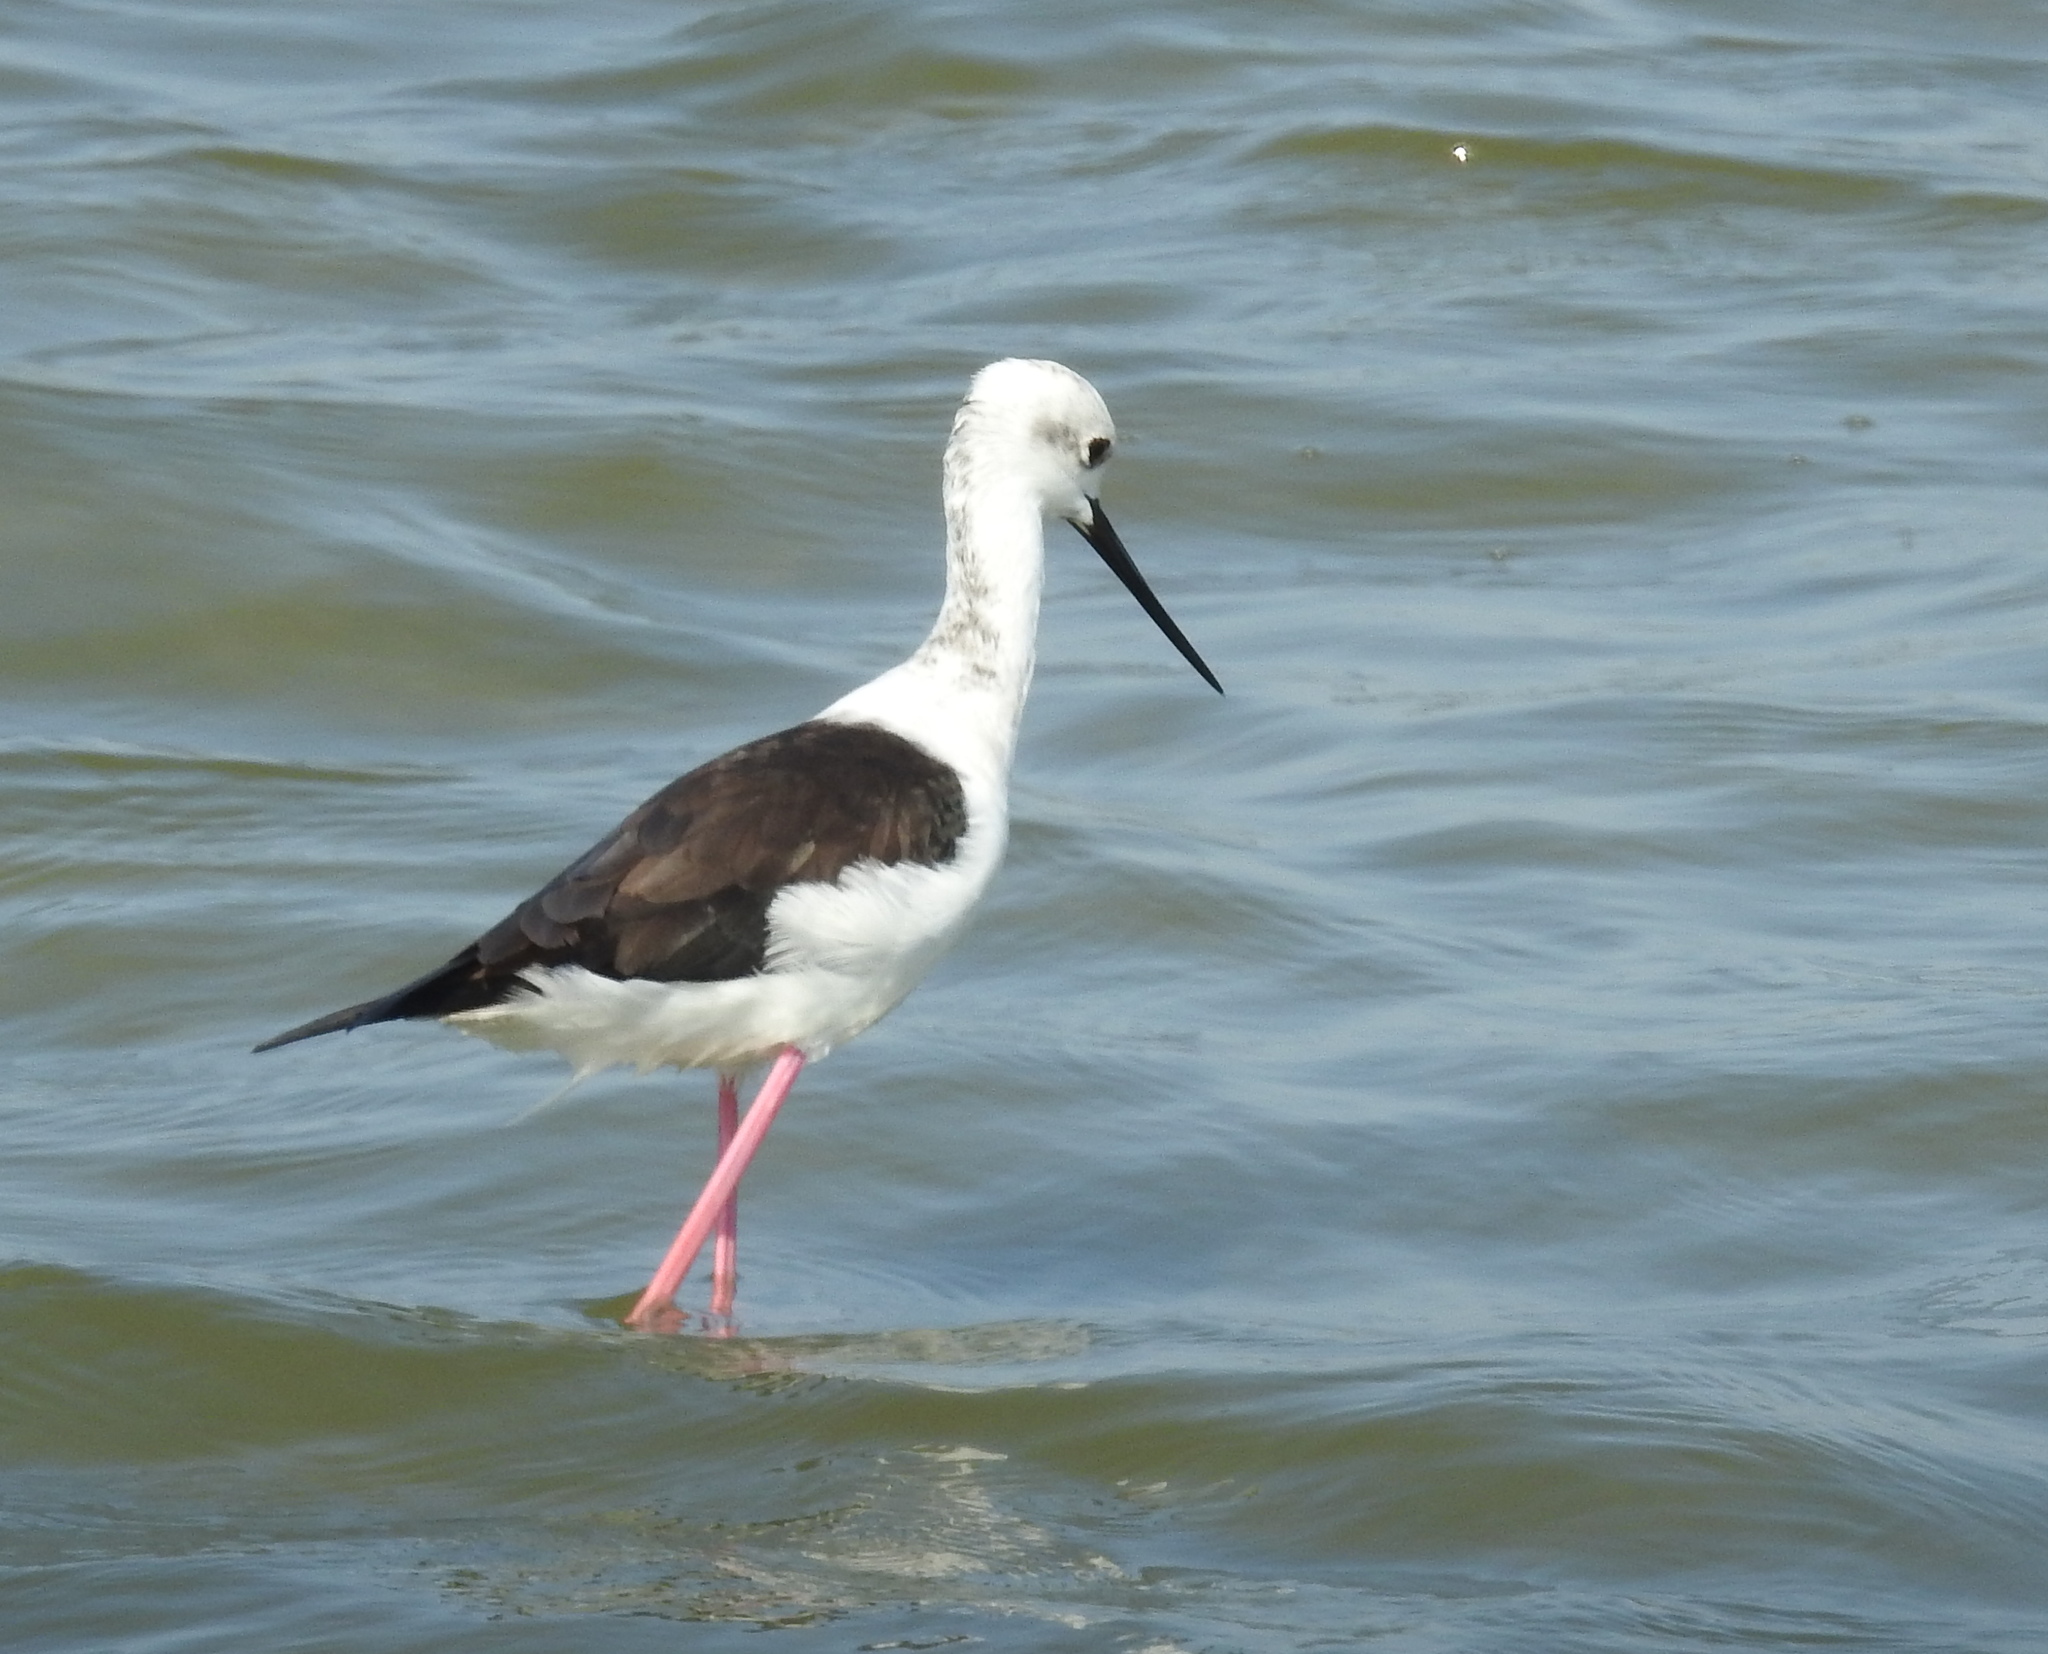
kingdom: Animalia
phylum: Chordata
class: Aves
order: Charadriiformes
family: Recurvirostridae
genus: Himantopus
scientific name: Himantopus himantopus
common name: Black-winged stilt
